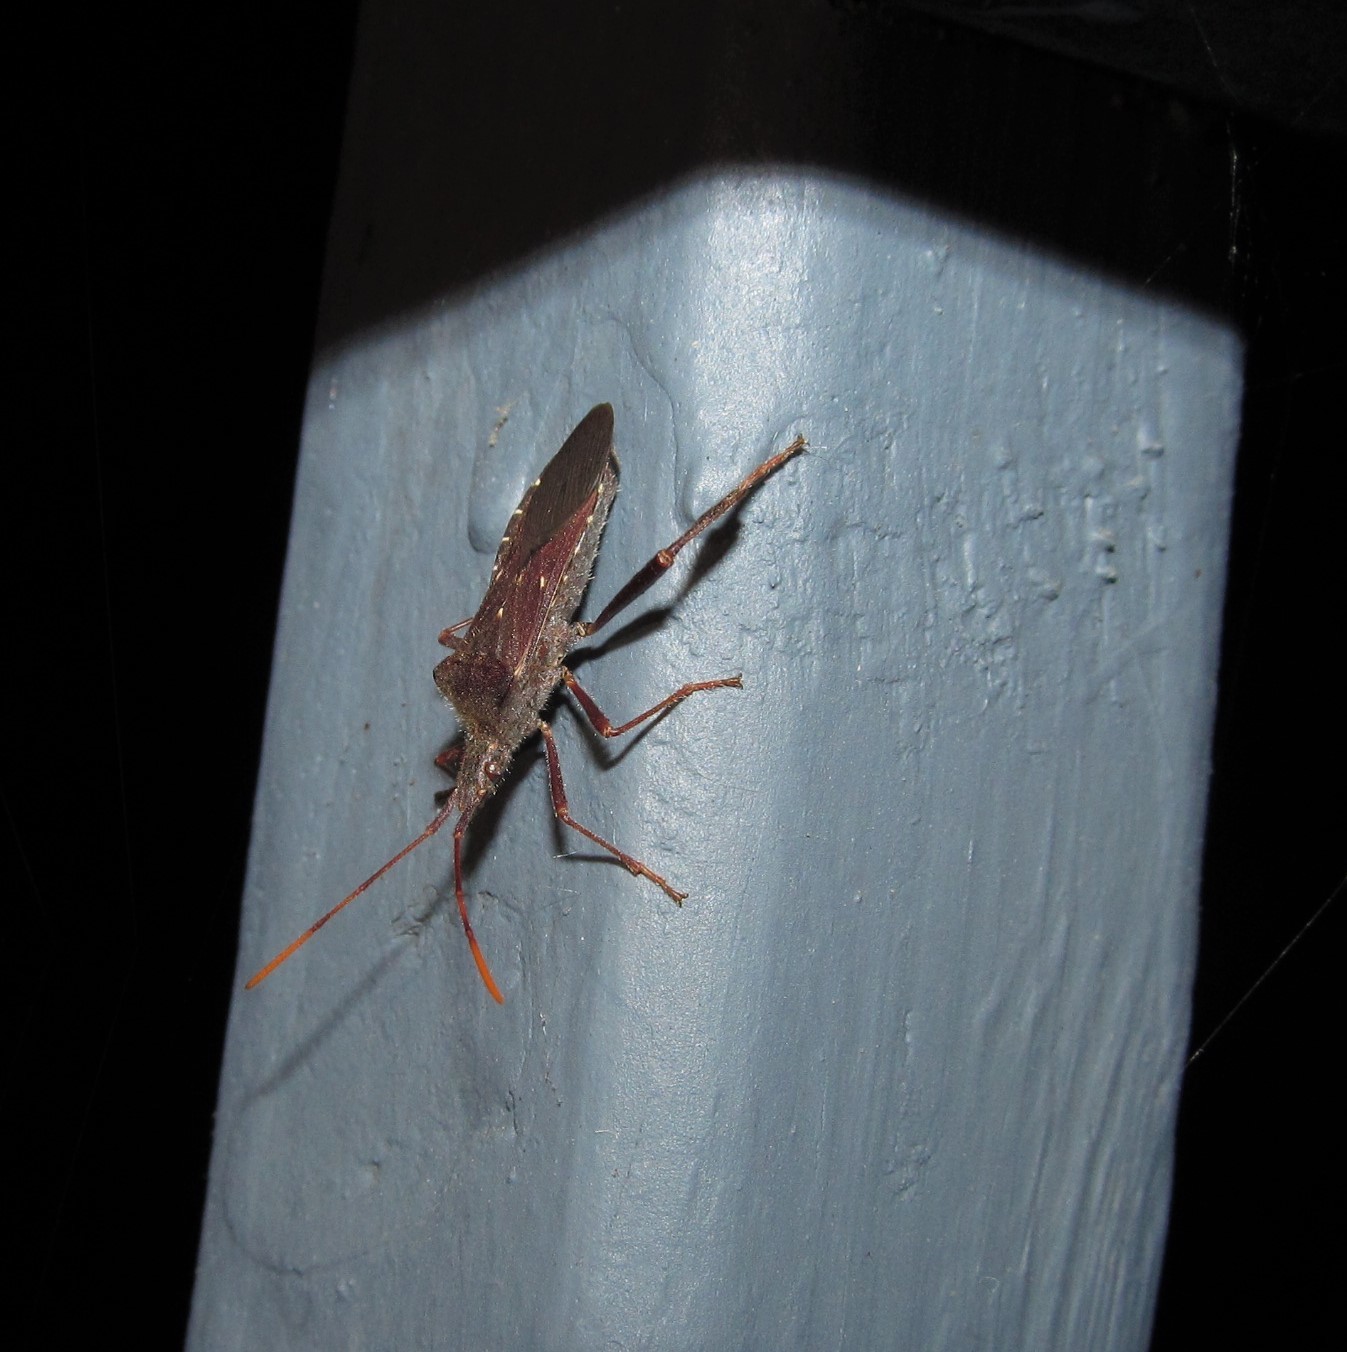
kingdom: Animalia
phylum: Arthropoda
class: Insecta
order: Hemiptera
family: Coreidae
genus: Leptoglossus
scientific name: Leptoglossus oppositus
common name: Northern leaf-footed bug
